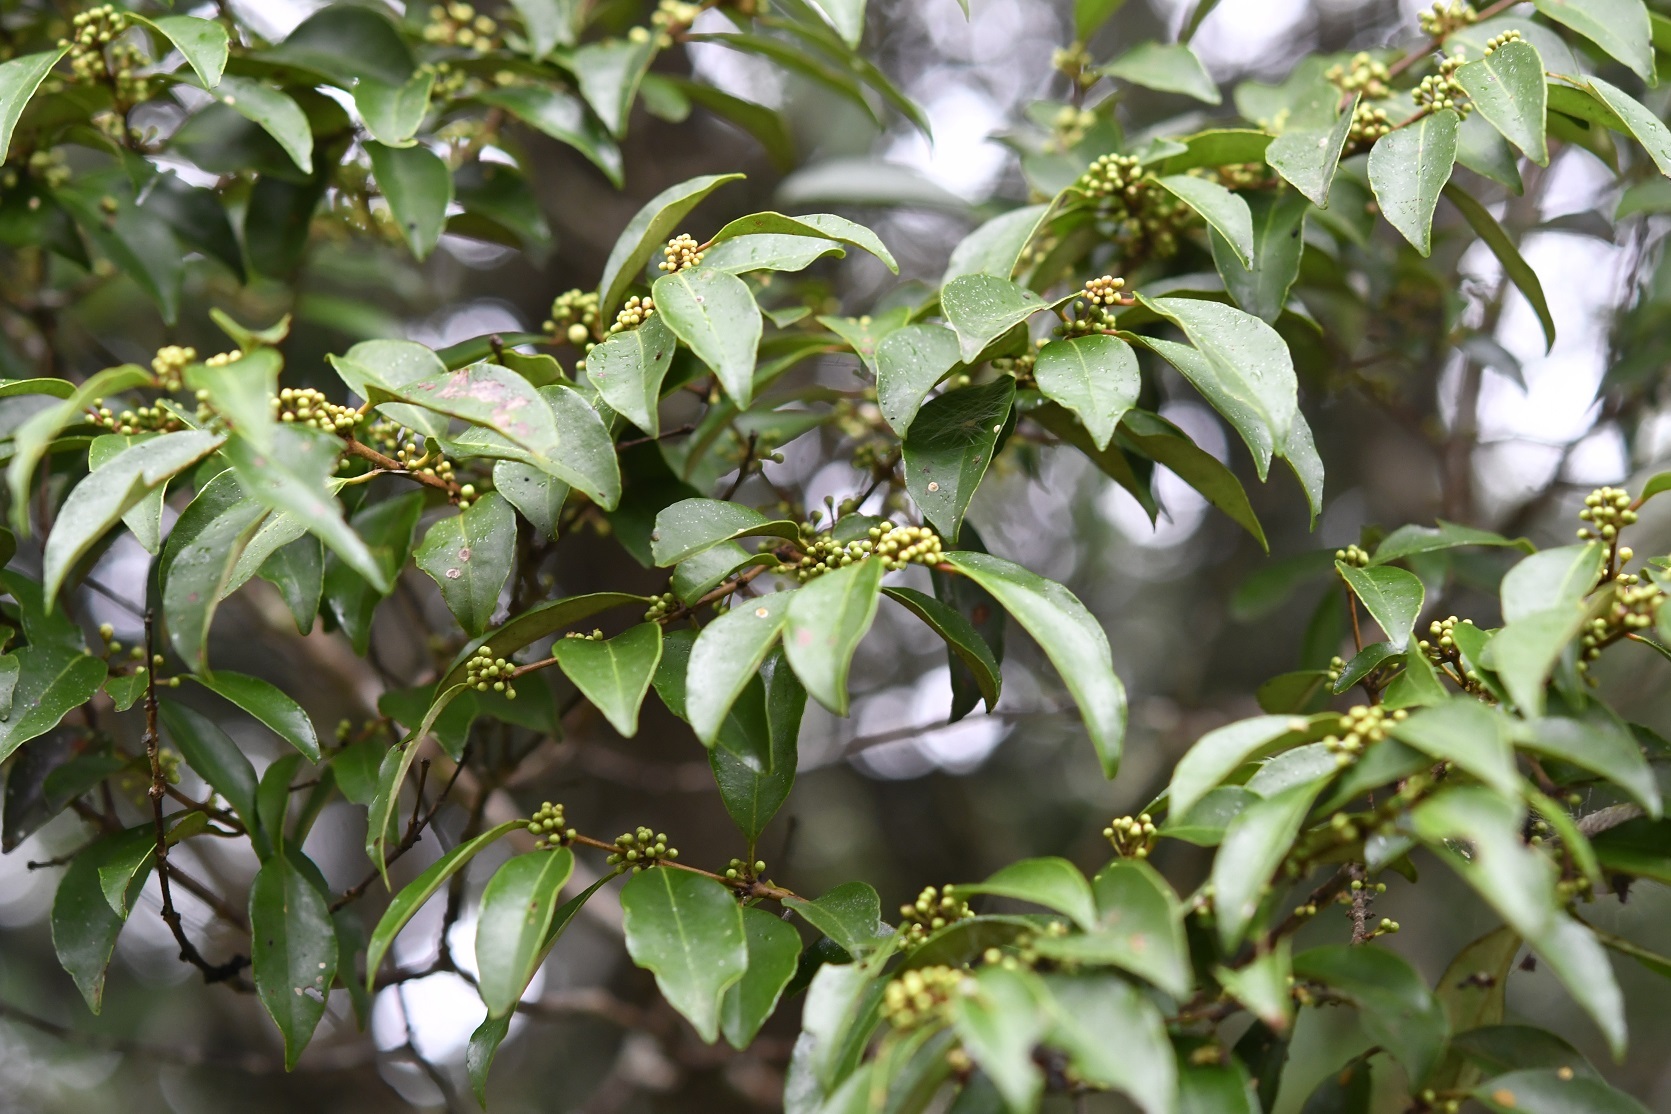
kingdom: Plantae
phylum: Tracheophyta
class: Magnoliopsida
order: Myrtales
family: Myrtaceae
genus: Eugenia
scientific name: Eugenia axillaris
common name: Choaky berry
